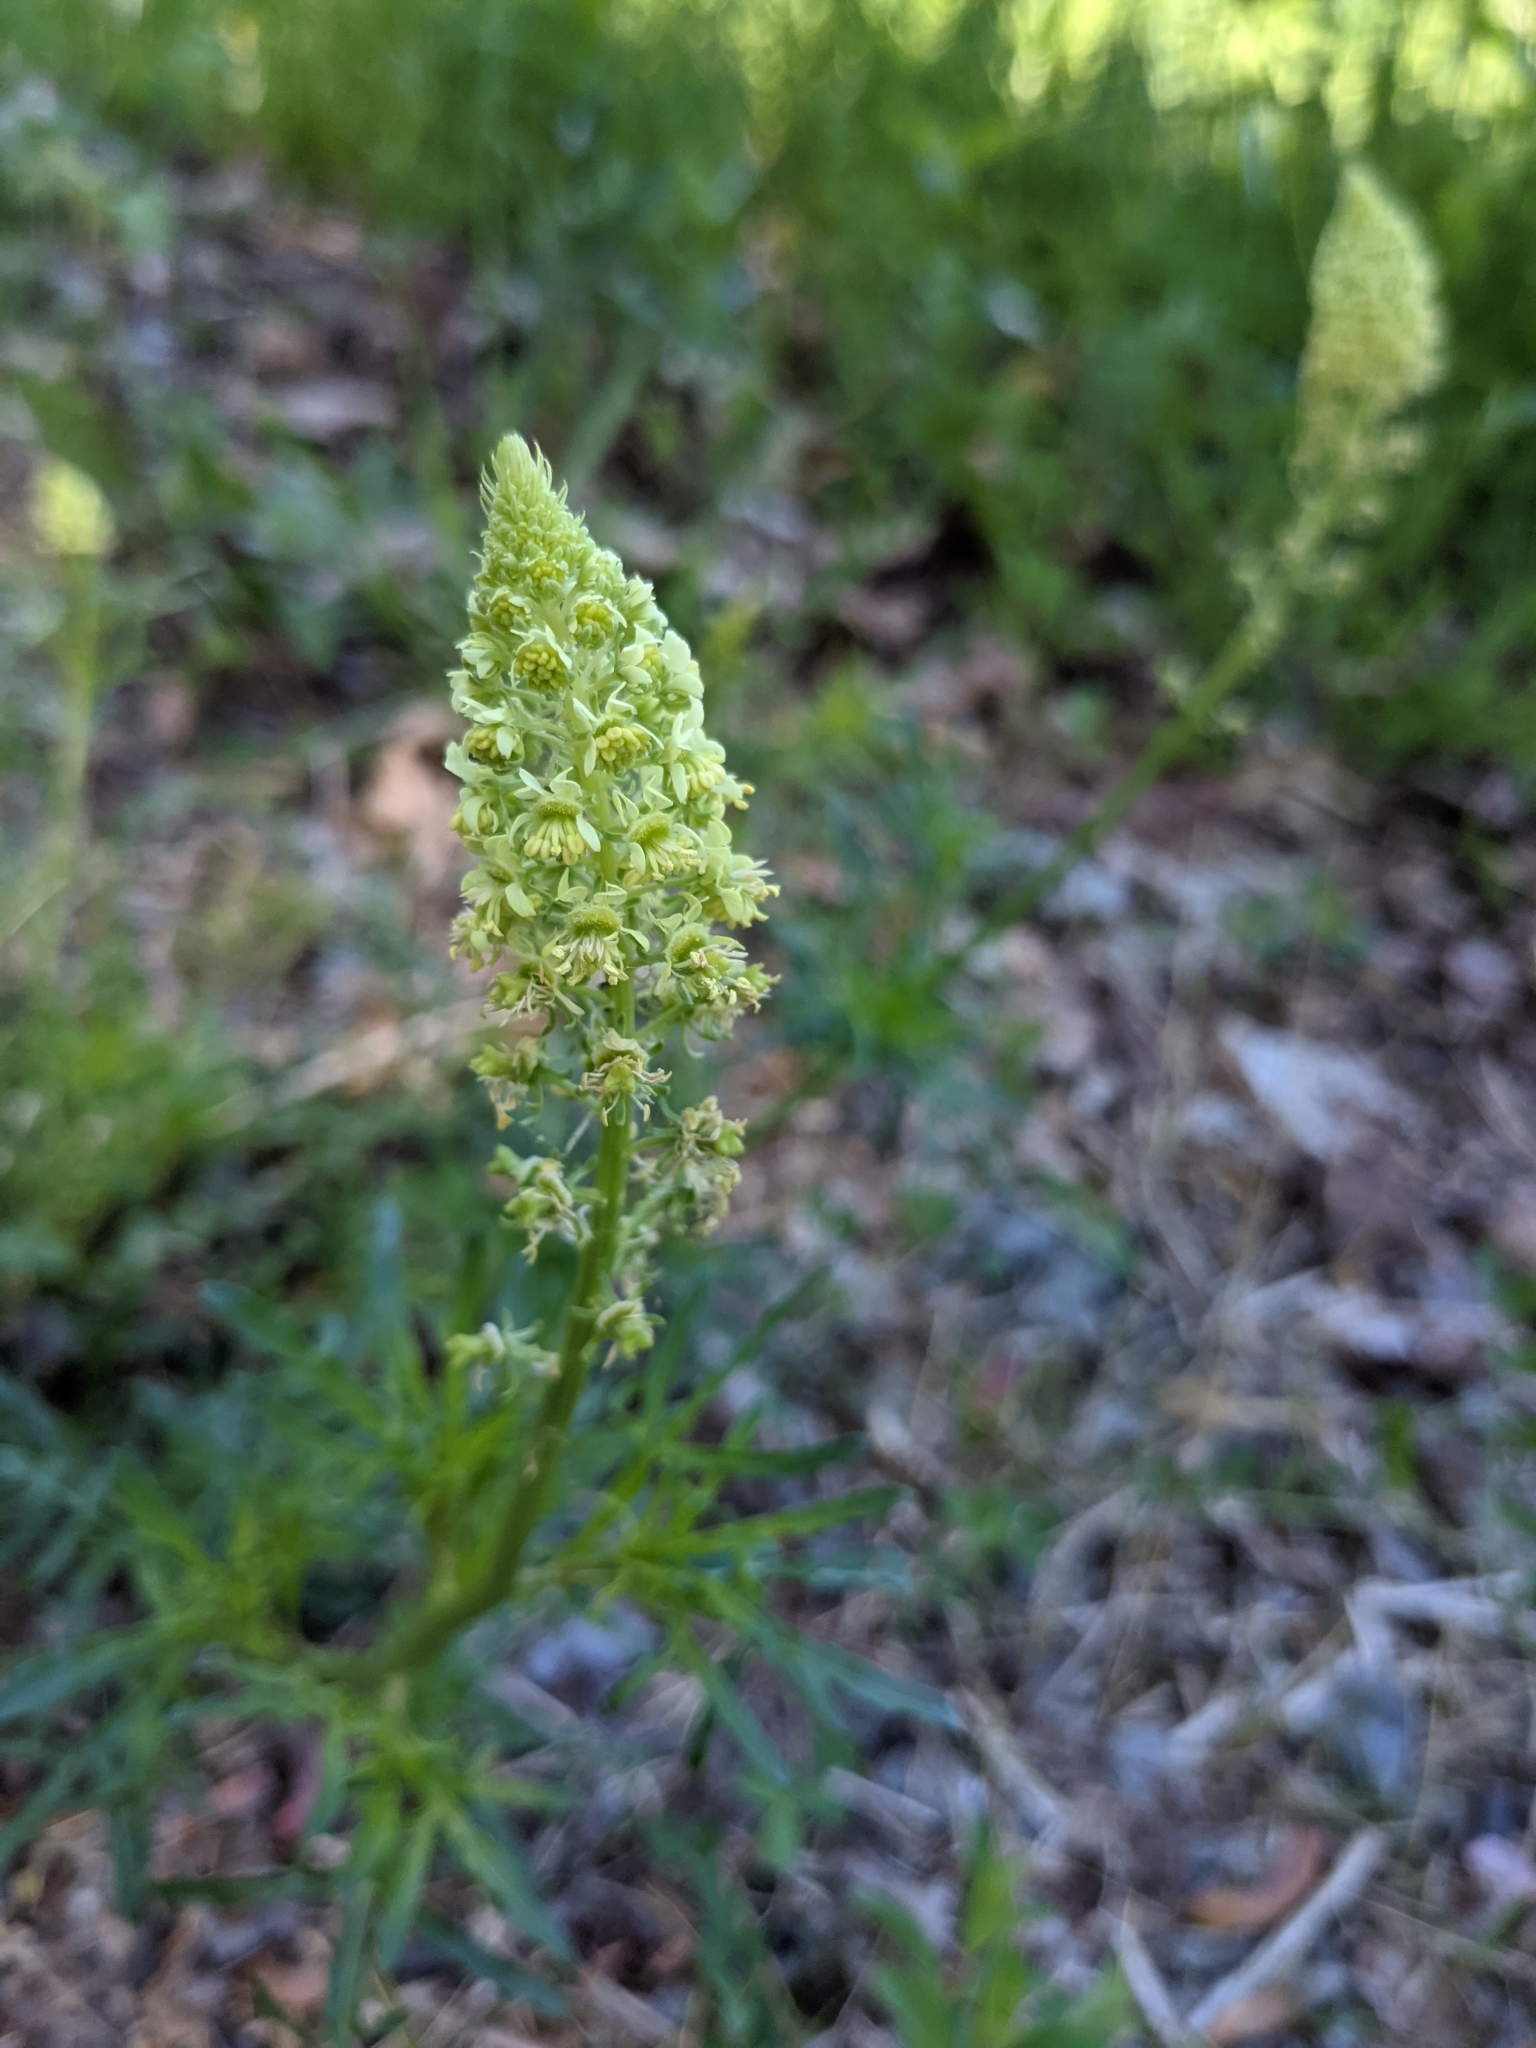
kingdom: Plantae
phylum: Tracheophyta
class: Magnoliopsida
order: Brassicales
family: Resedaceae
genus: Reseda
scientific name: Reseda lutea
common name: Wild mignonette
